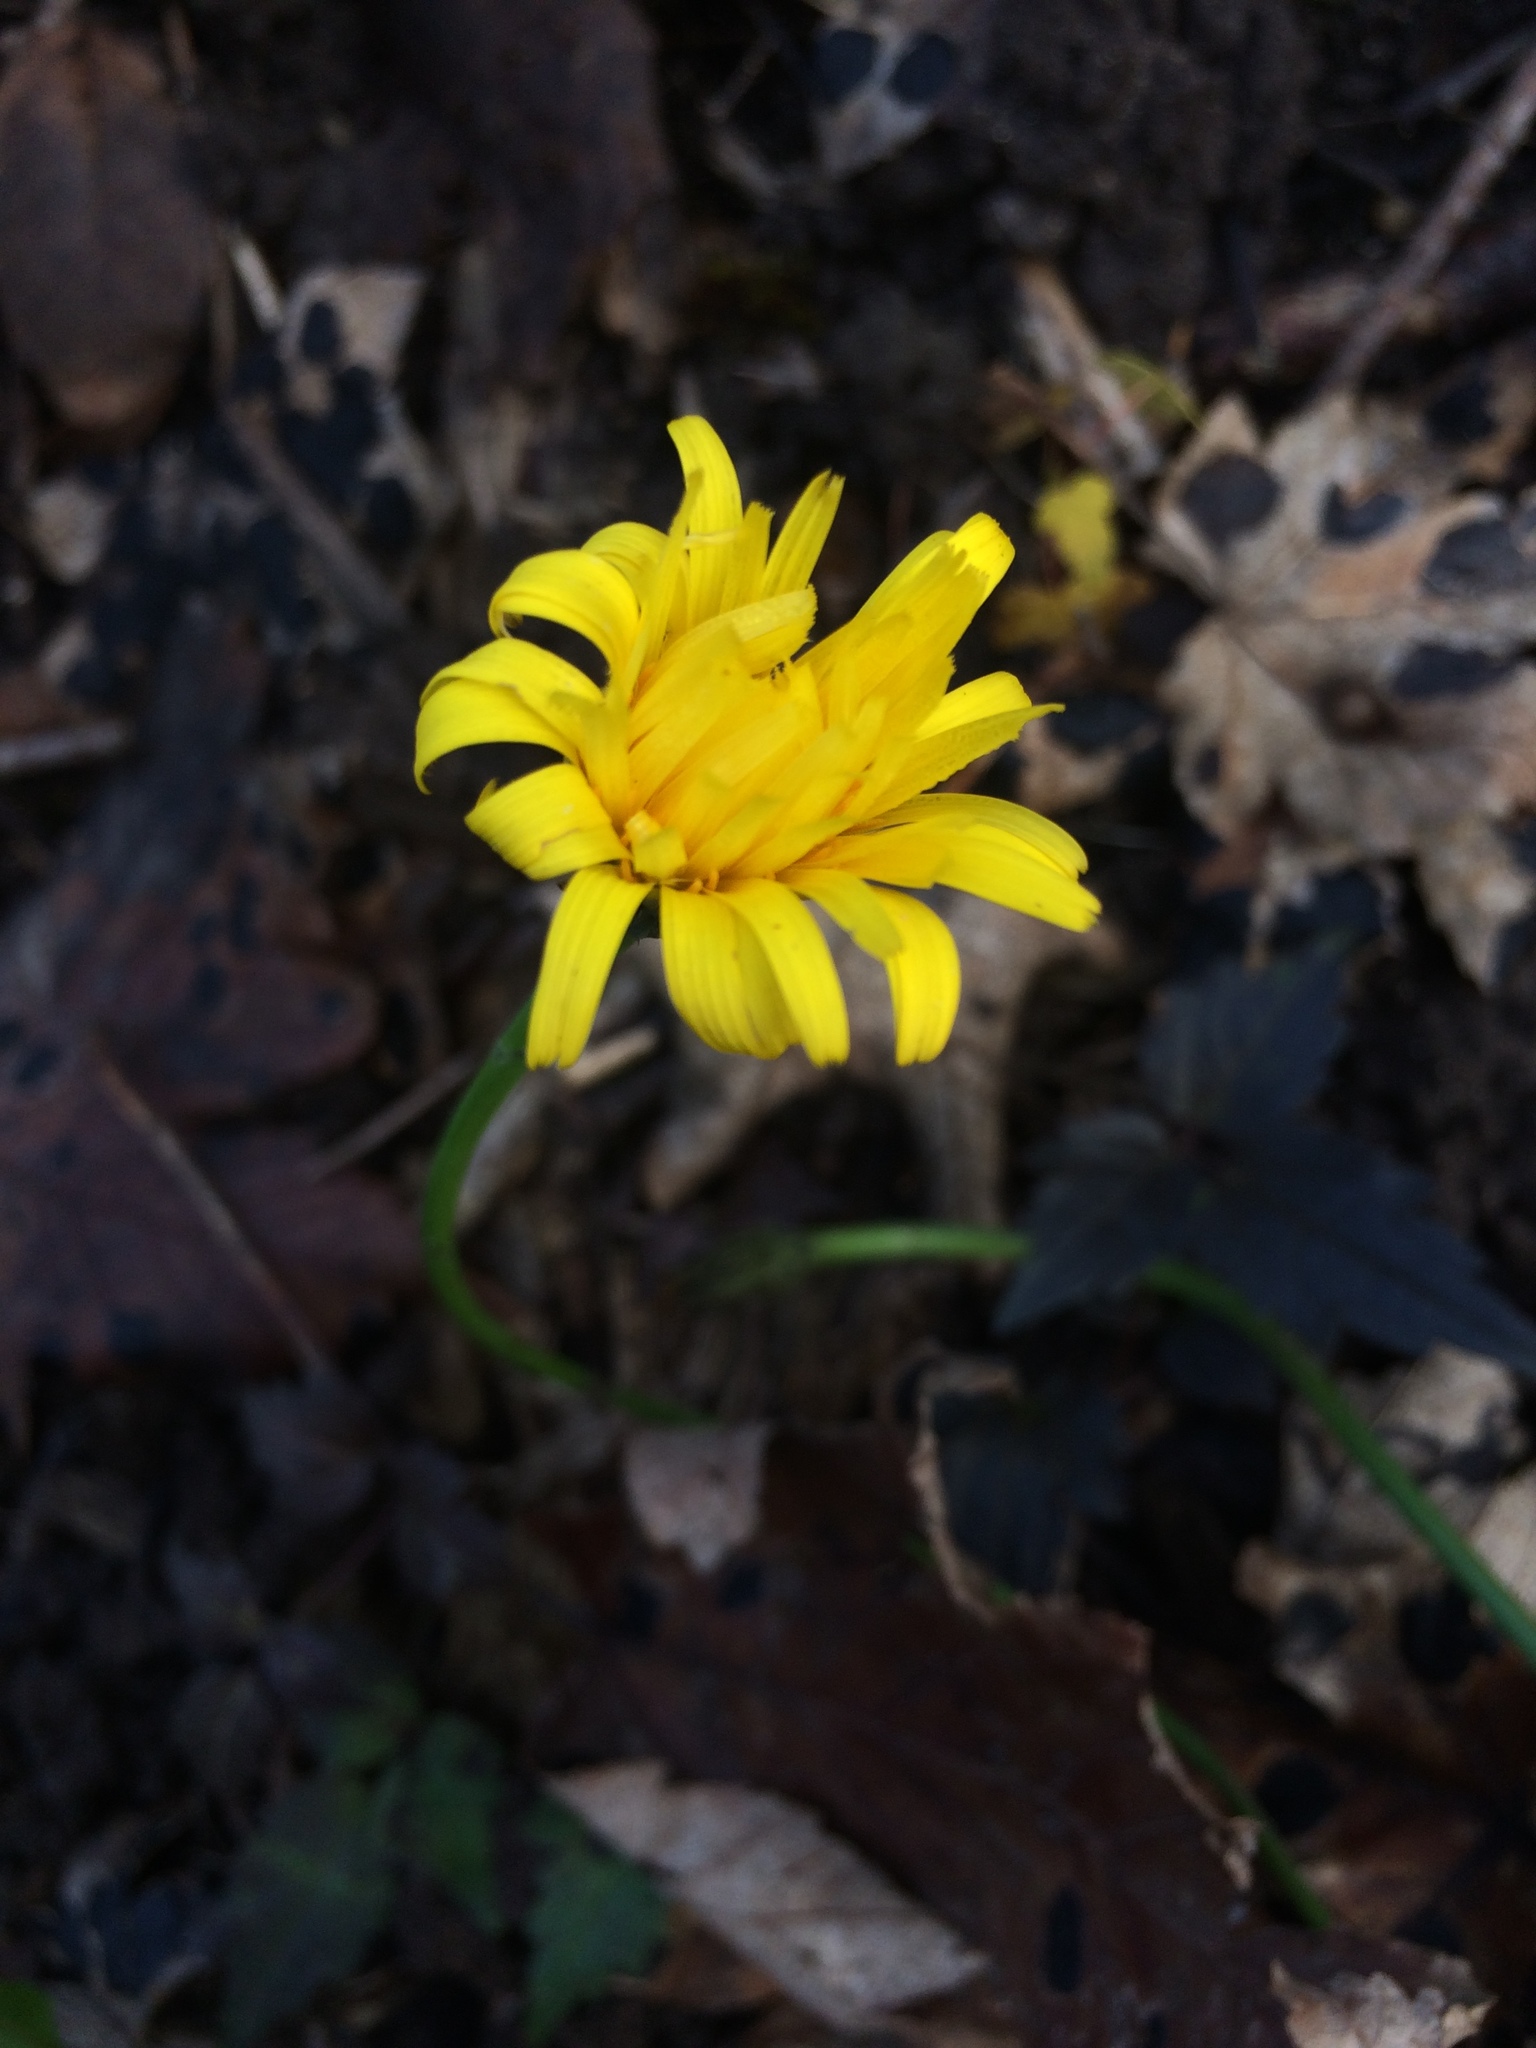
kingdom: Plantae
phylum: Tracheophyta
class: Magnoliopsida
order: Asterales
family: Asteraceae
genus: Hypochaeris
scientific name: Hypochaeris radicata
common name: Flatweed
